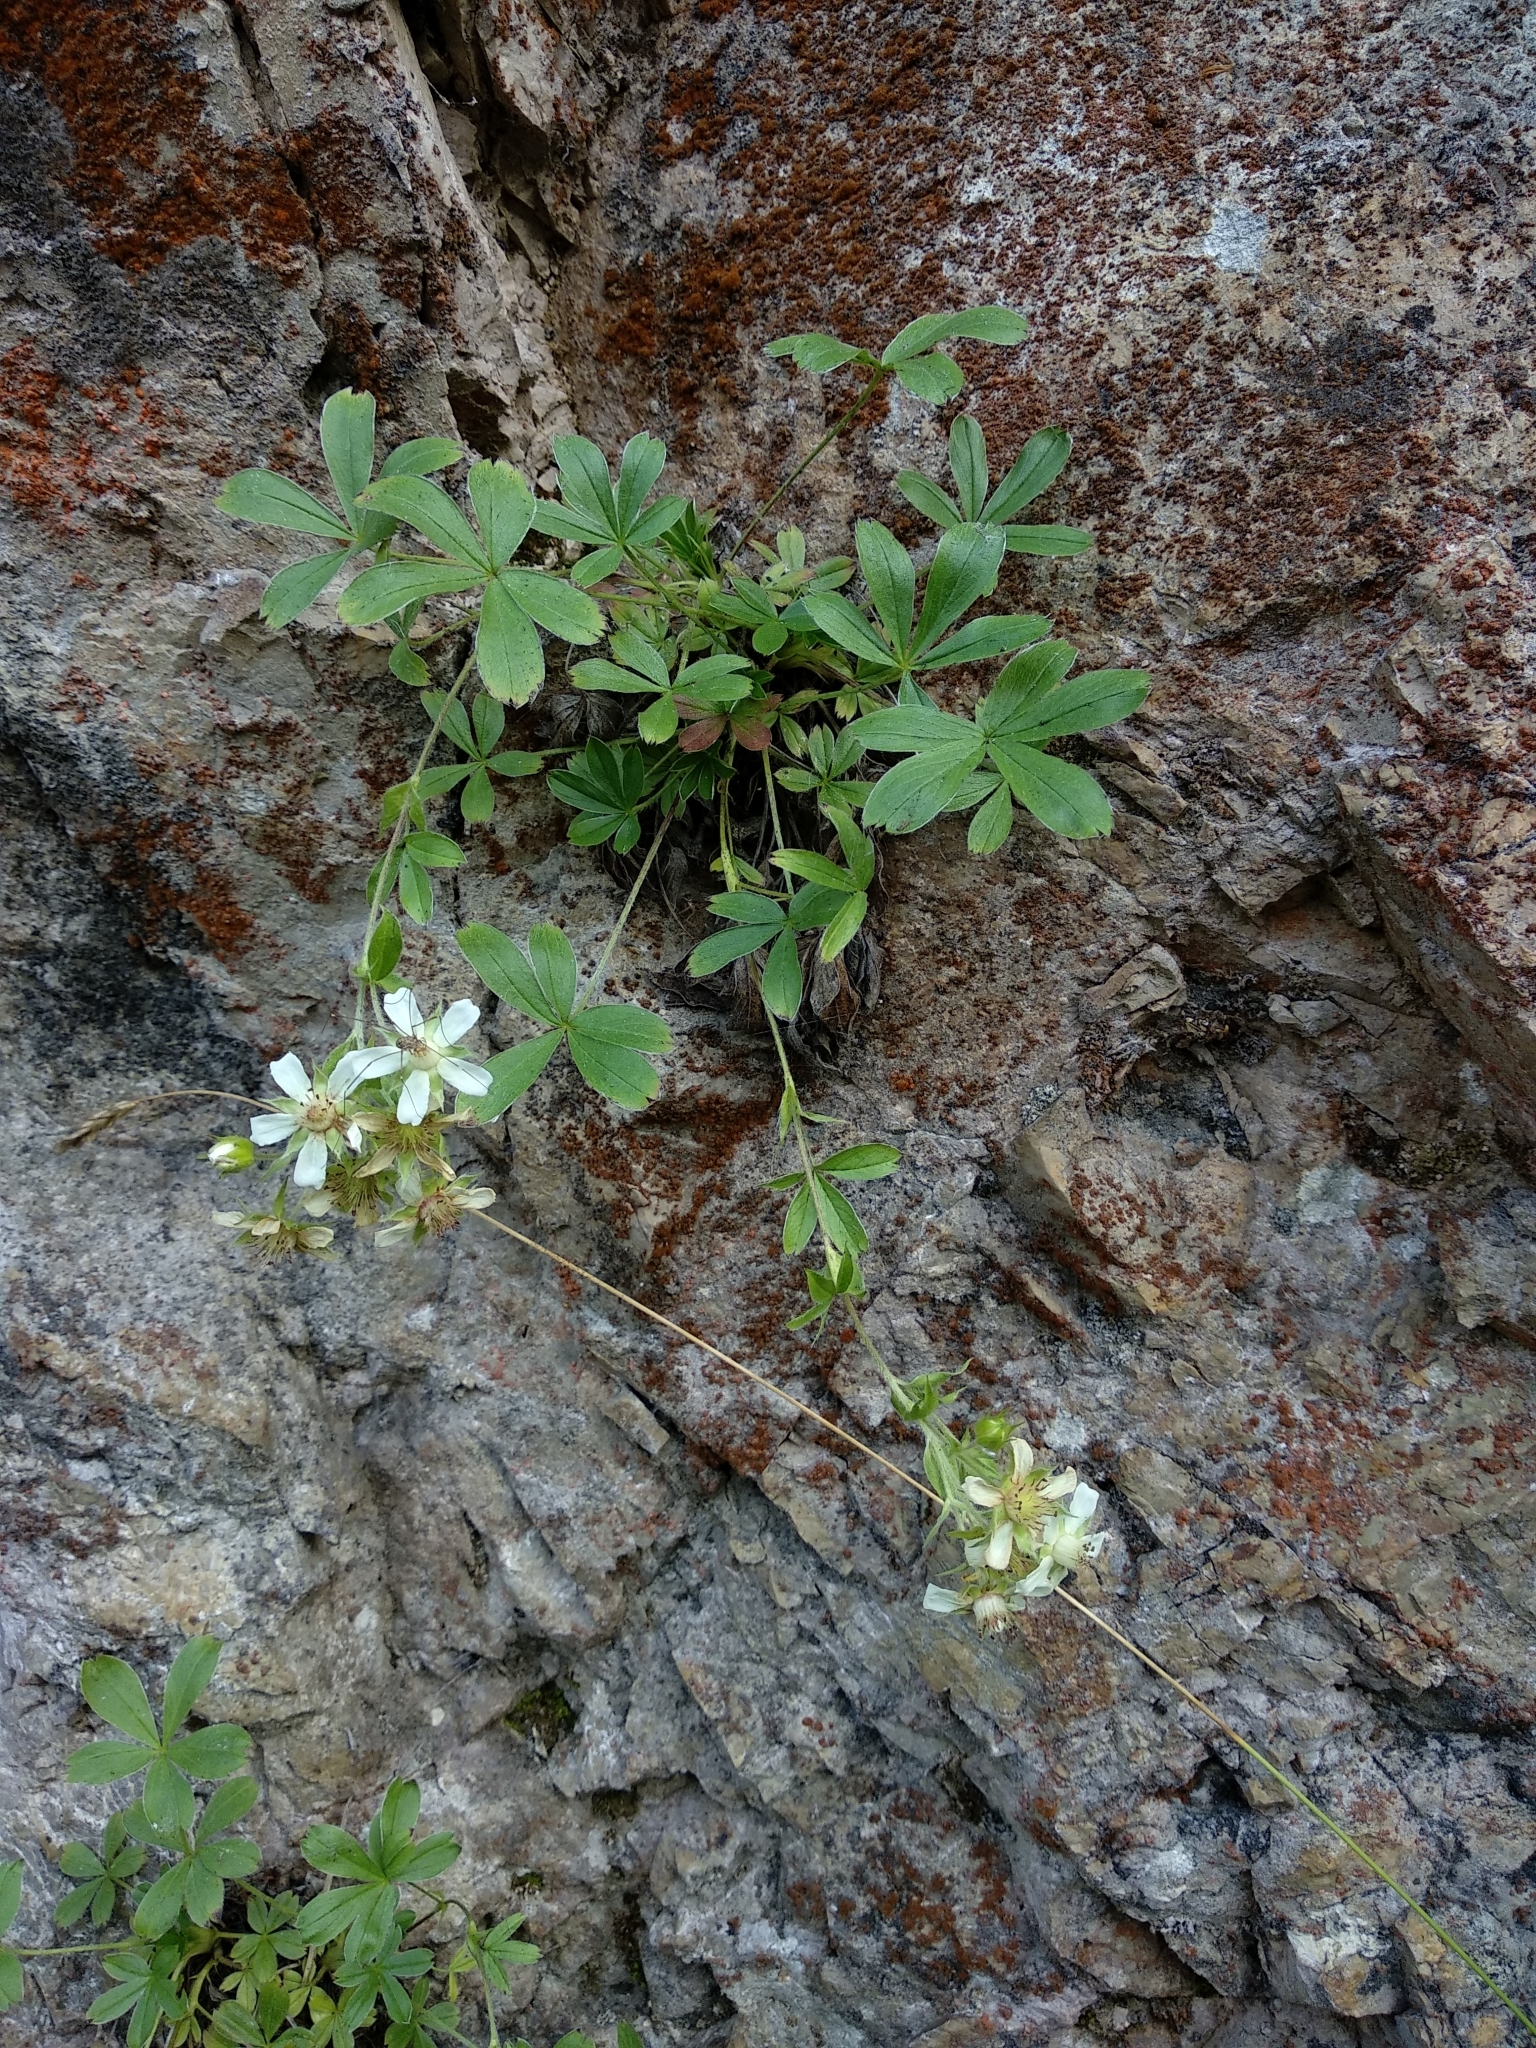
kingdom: Plantae
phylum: Tracheophyta
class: Magnoliopsida
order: Rosales
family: Rosaceae
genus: Potentilla
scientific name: Potentilla caulescens
